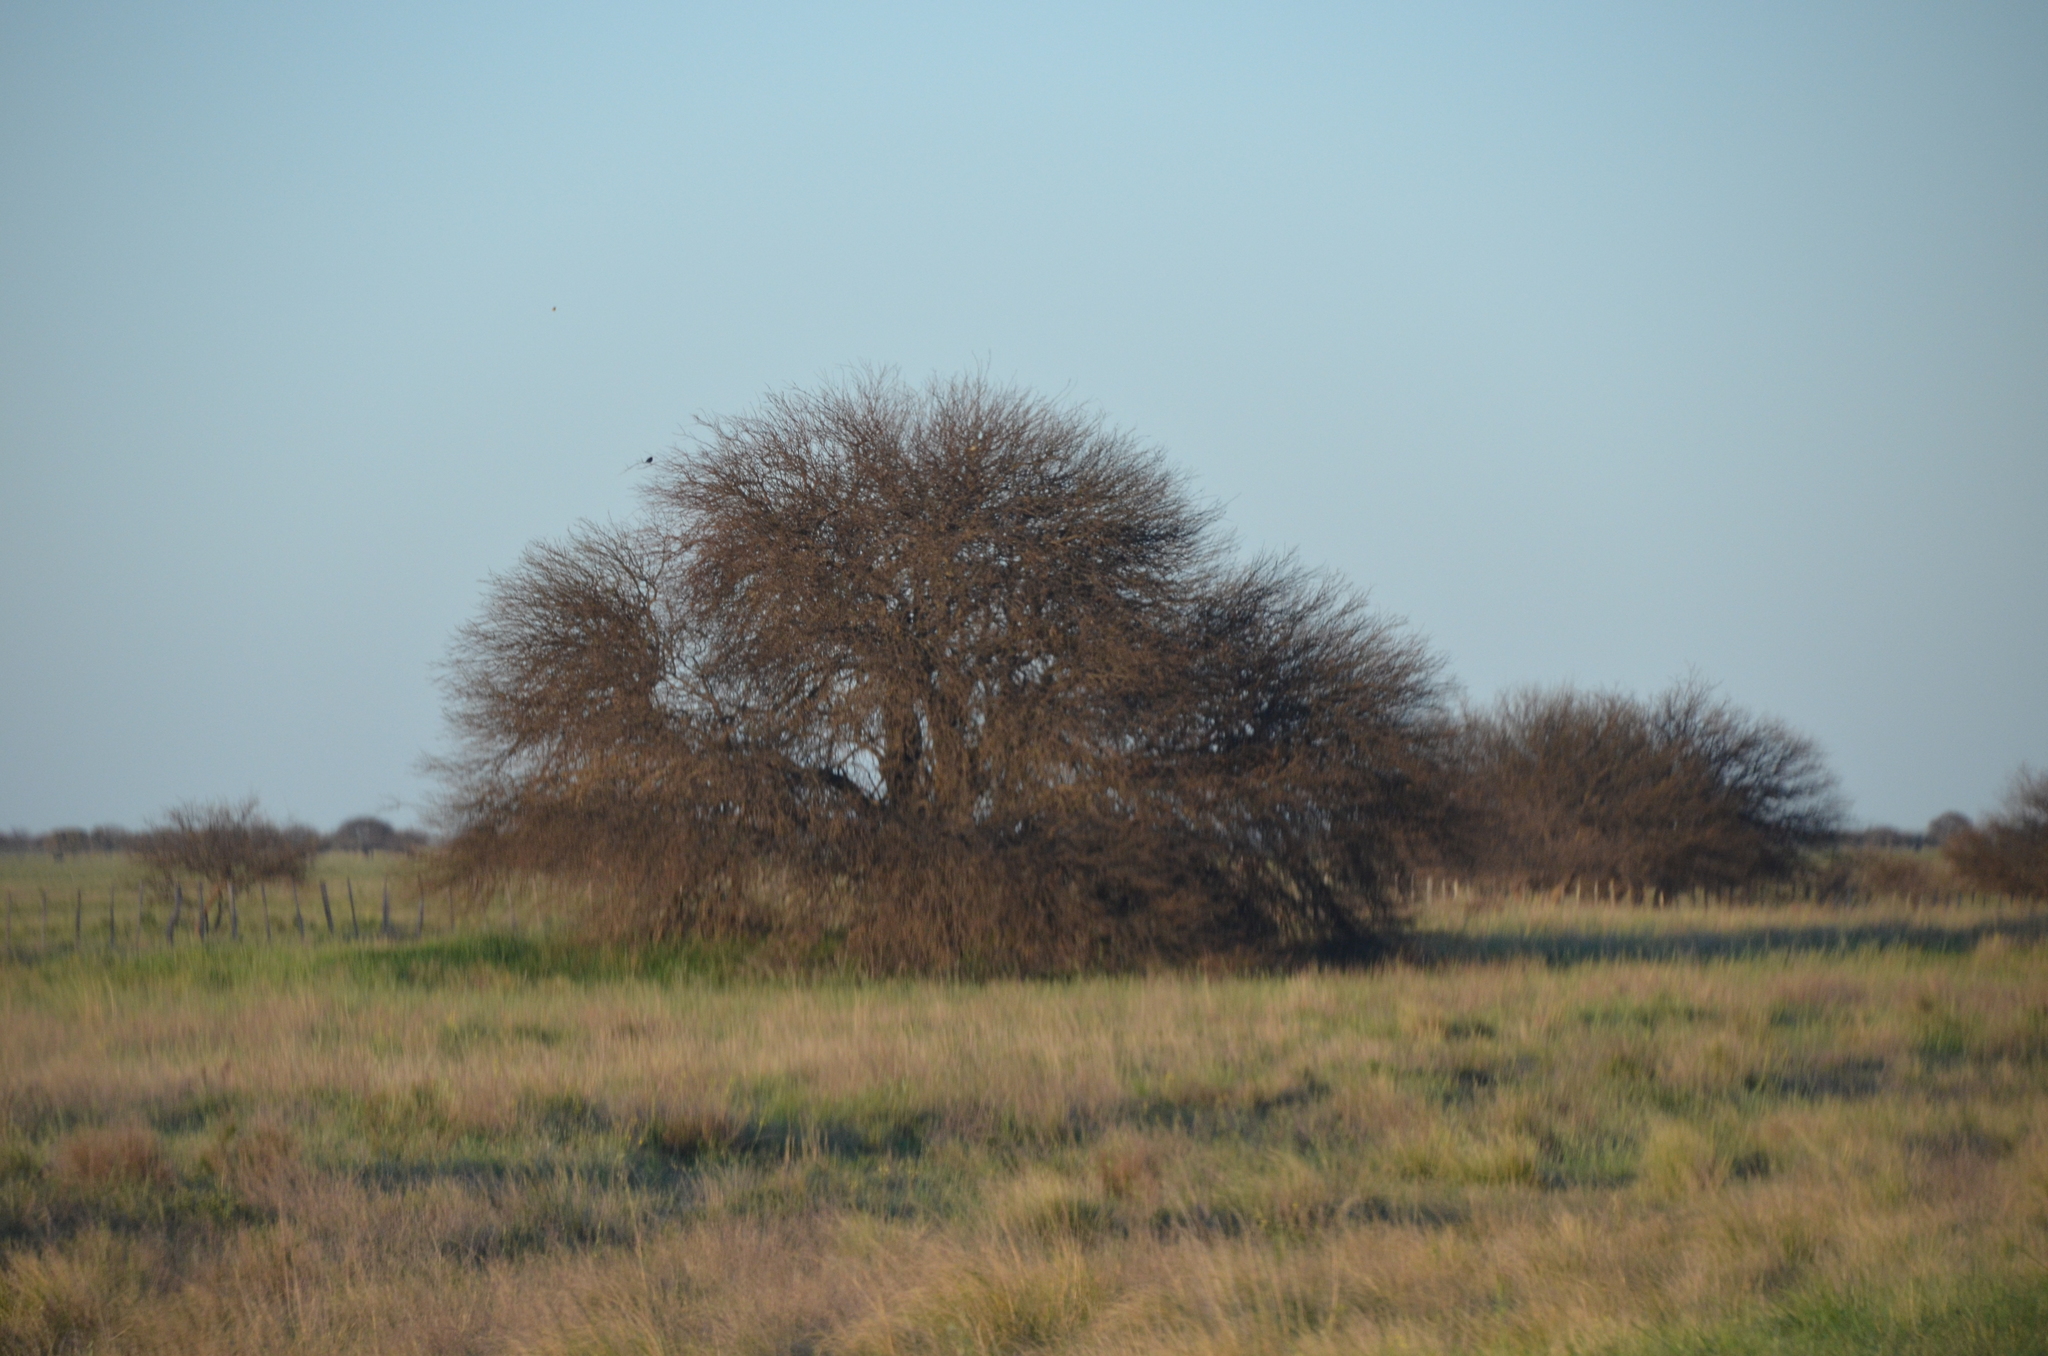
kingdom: Plantae
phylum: Tracheophyta
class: Magnoliopsida
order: Fabales
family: Fabaceae
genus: Prosopis
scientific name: Prosopis caldenia
